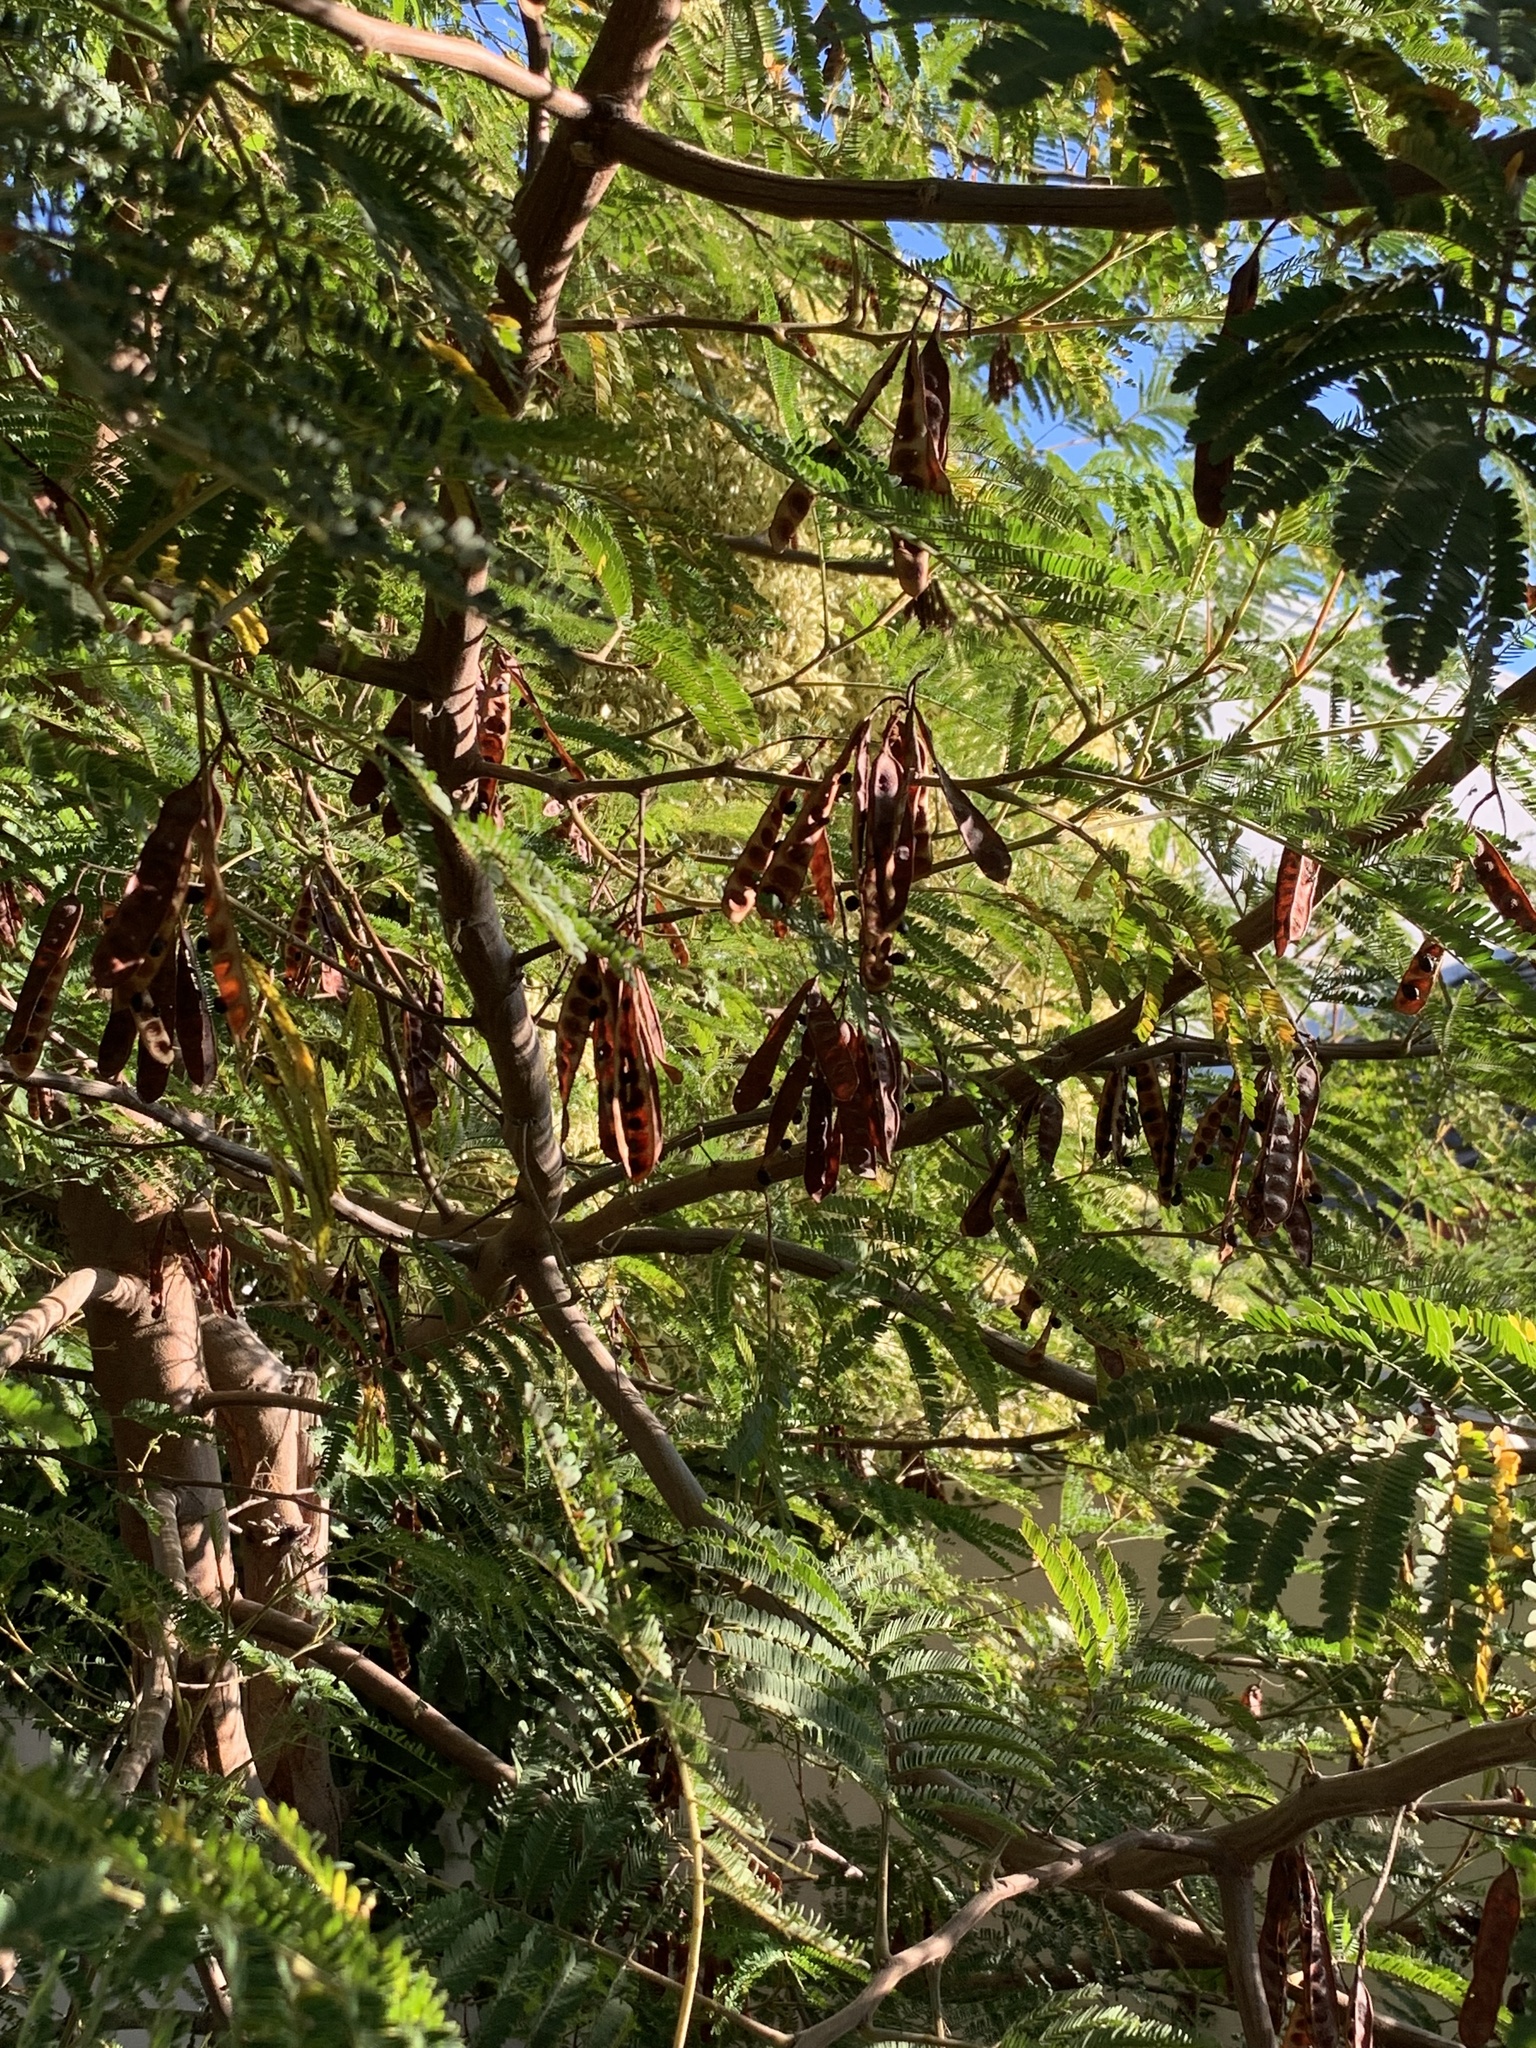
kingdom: Plantae
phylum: Tracheophyta
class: Magnoliopsida
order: Fabales
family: Fabaceae
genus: Paraserianthes
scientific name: Paraserianthes lophantha
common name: Plume albizia
